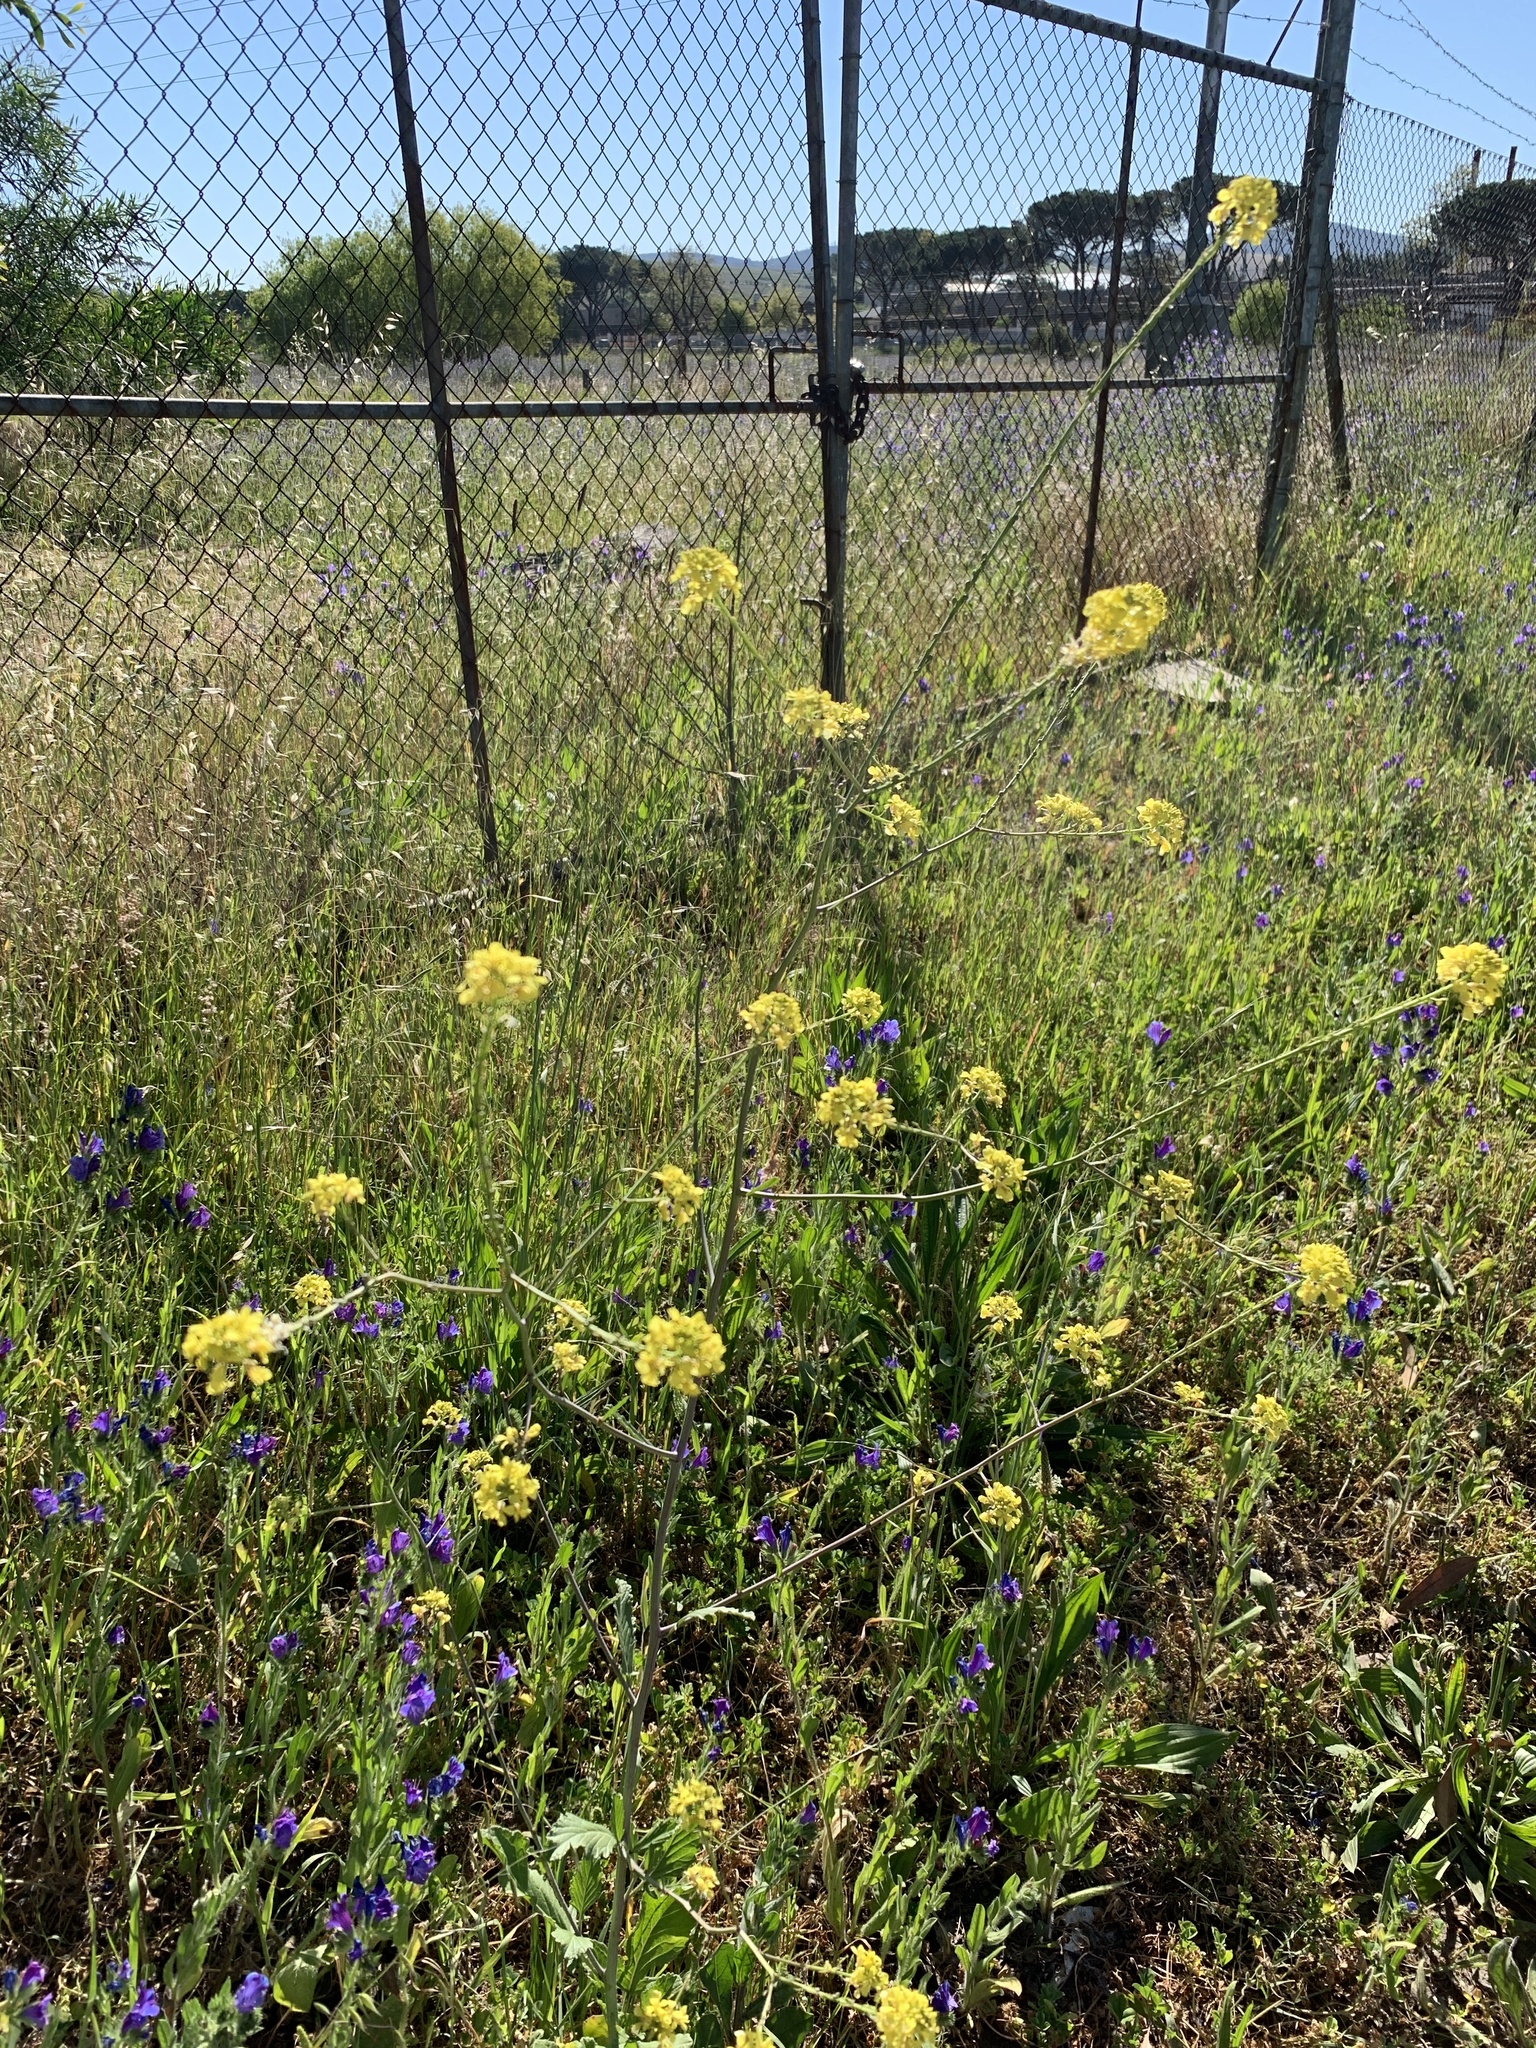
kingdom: Plantae
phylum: Tracheophyta
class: Magnoliopsida
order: Brassicales
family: Brassicaceae
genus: Rapistrum
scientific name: Rapistrum rugosum
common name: Annual bastardcabbage
